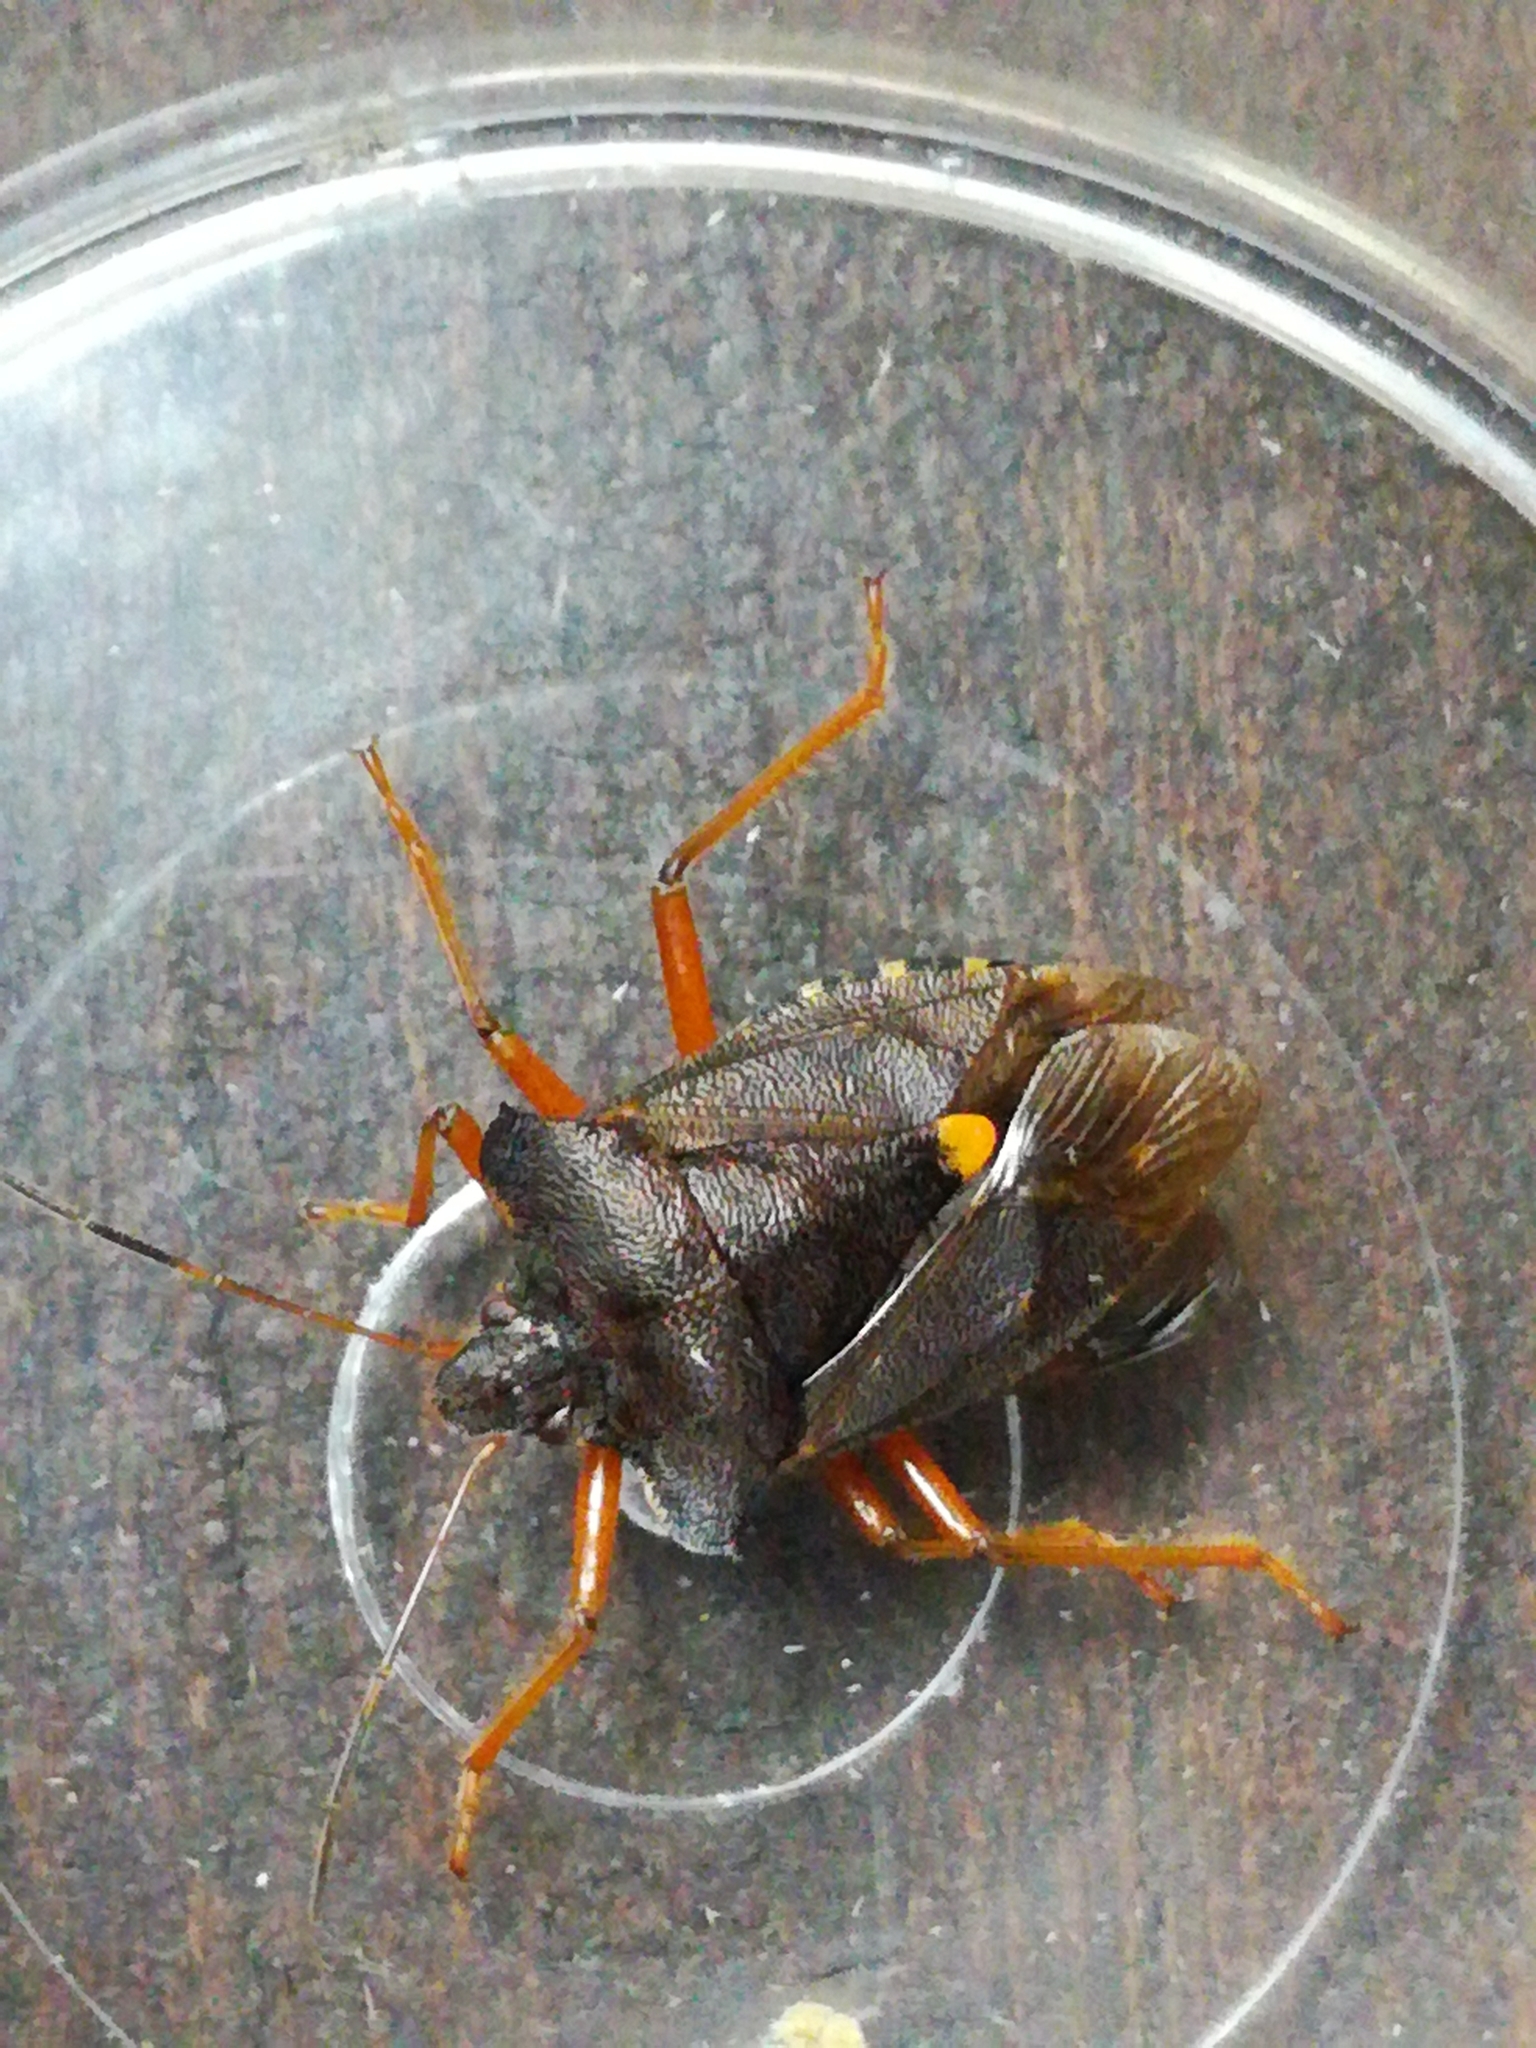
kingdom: Animalia
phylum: Arthropoda
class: Insecta
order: Hemiptera
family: Pentatomidae
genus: Pentatoma
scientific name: Pentatoma rufipes
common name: Forest bug
